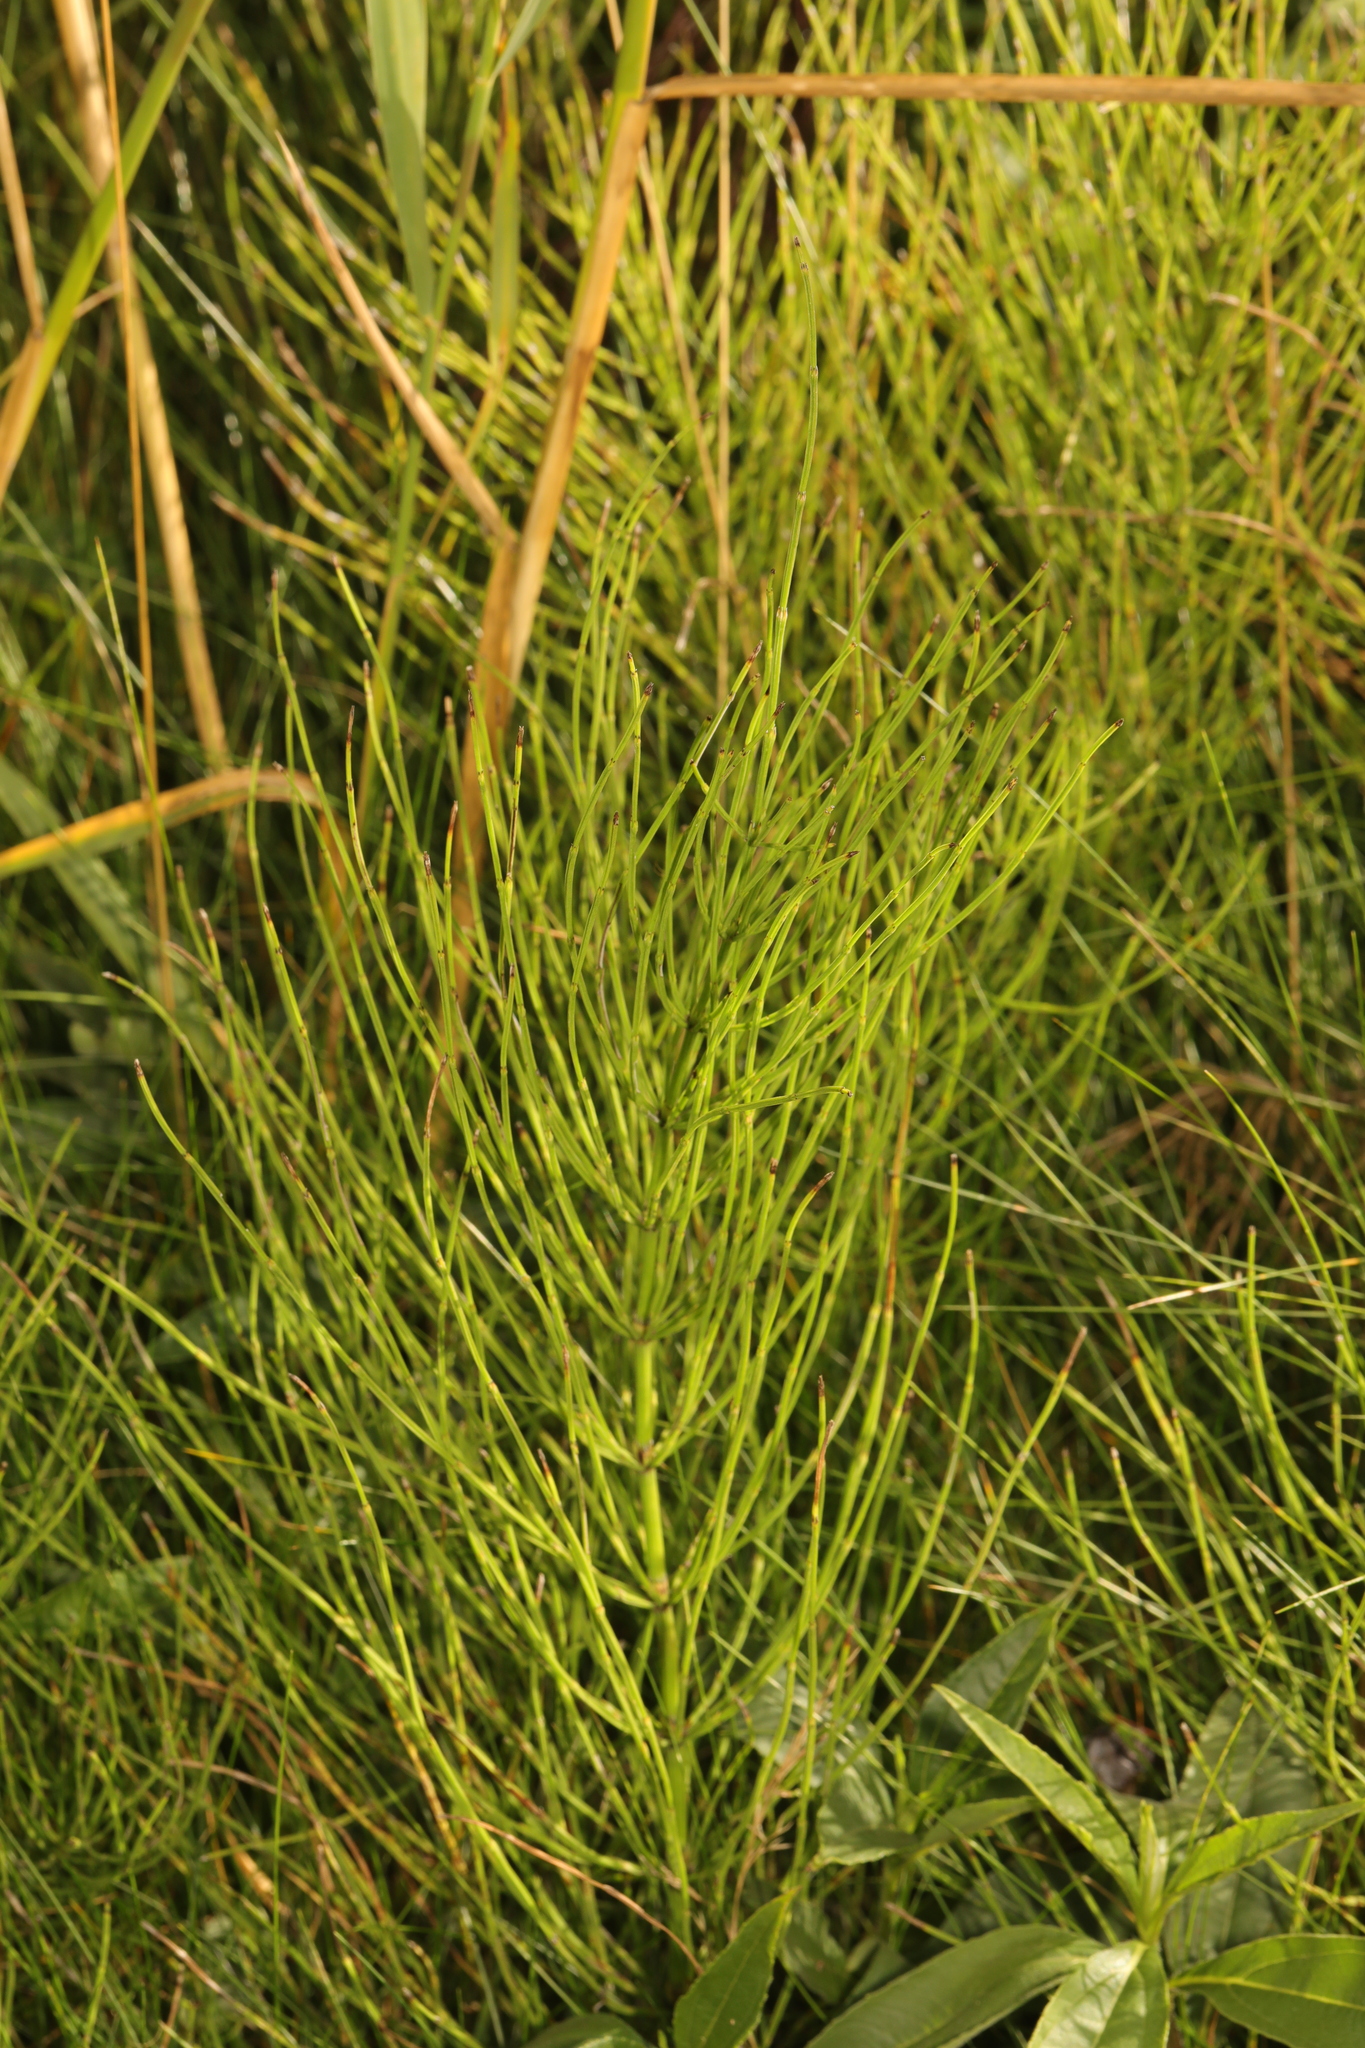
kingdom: Plantae
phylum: Tracheophyta
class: Polypodiopsida
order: Equisetales
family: Equisetaceae
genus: Equisetum
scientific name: Equisetum arvense
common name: Field horsetail
